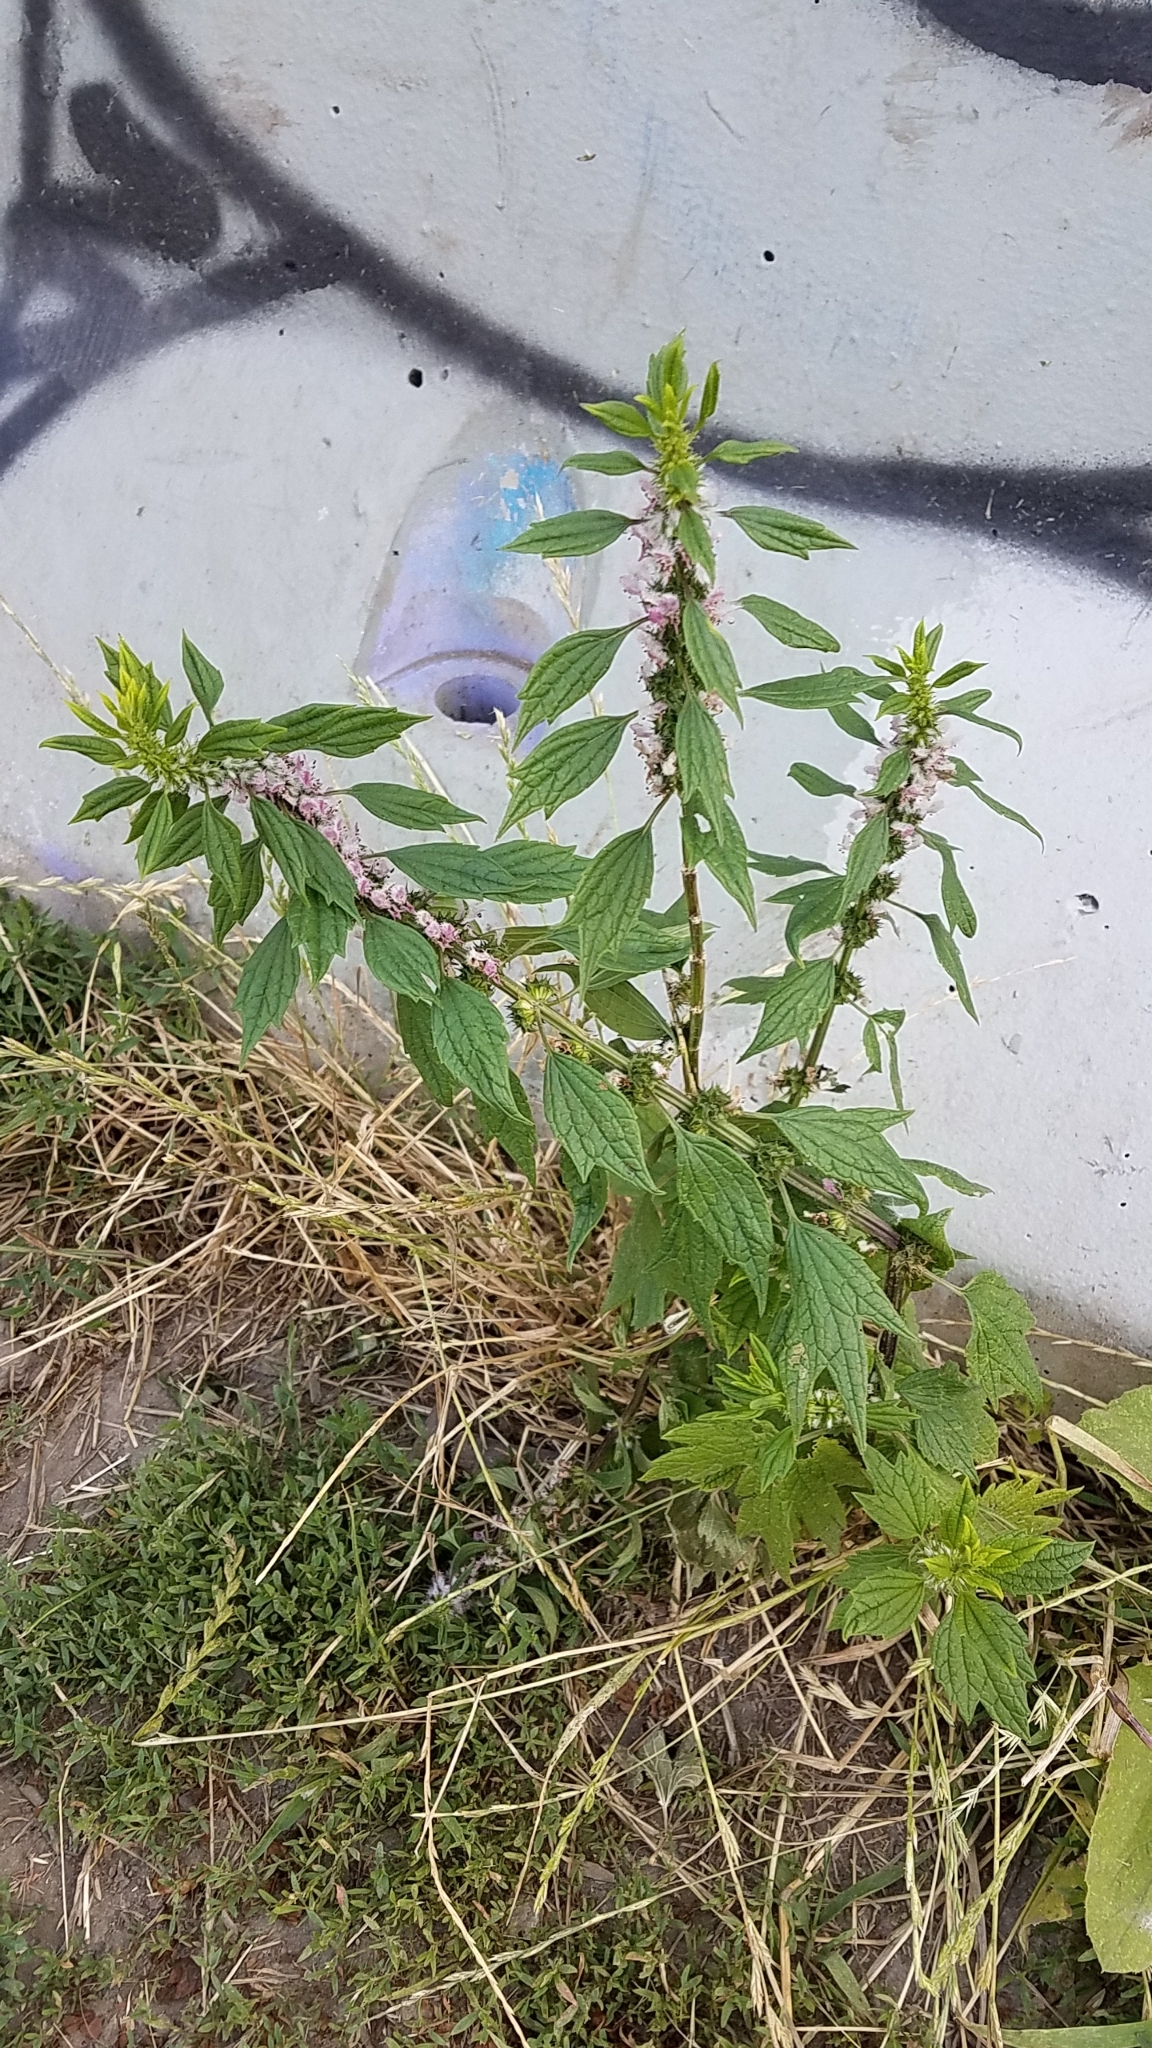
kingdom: Plantae
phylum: Tracheophyta
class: Magnoliopsida
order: Lamiales
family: Lamiaceae
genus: Leonurus
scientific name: Leonurus cardiaca
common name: Motherwort
